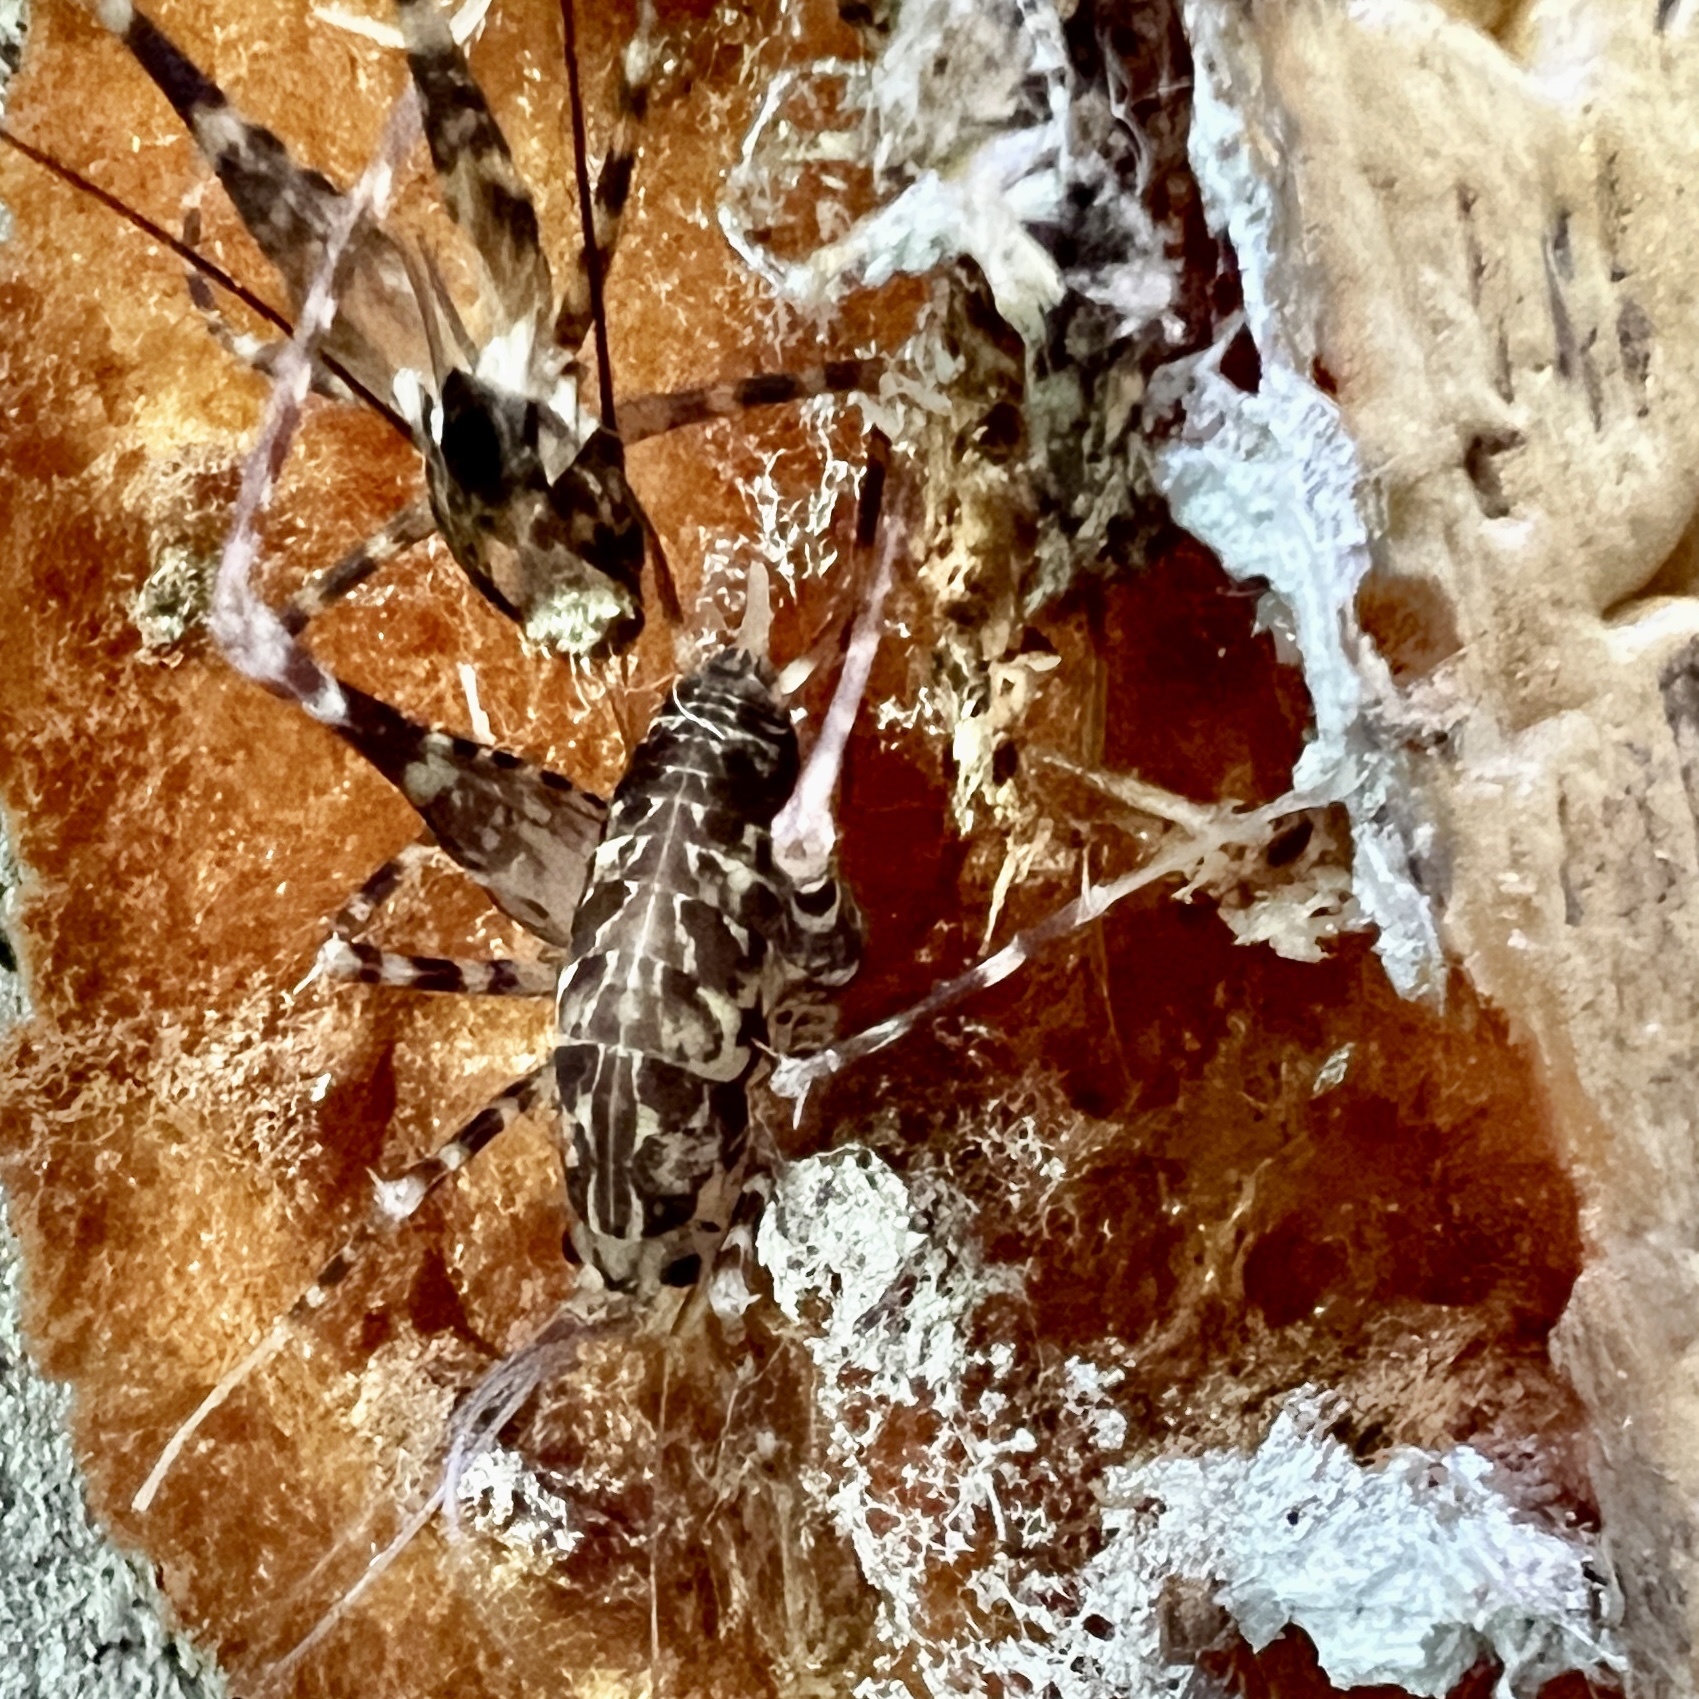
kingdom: Animalia
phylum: Arthropoda
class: Insecta
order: Orthoptera
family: Rhaphidophoridae
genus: Diestrammena
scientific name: Diestrammena japanica
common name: Japanese camel cricket
